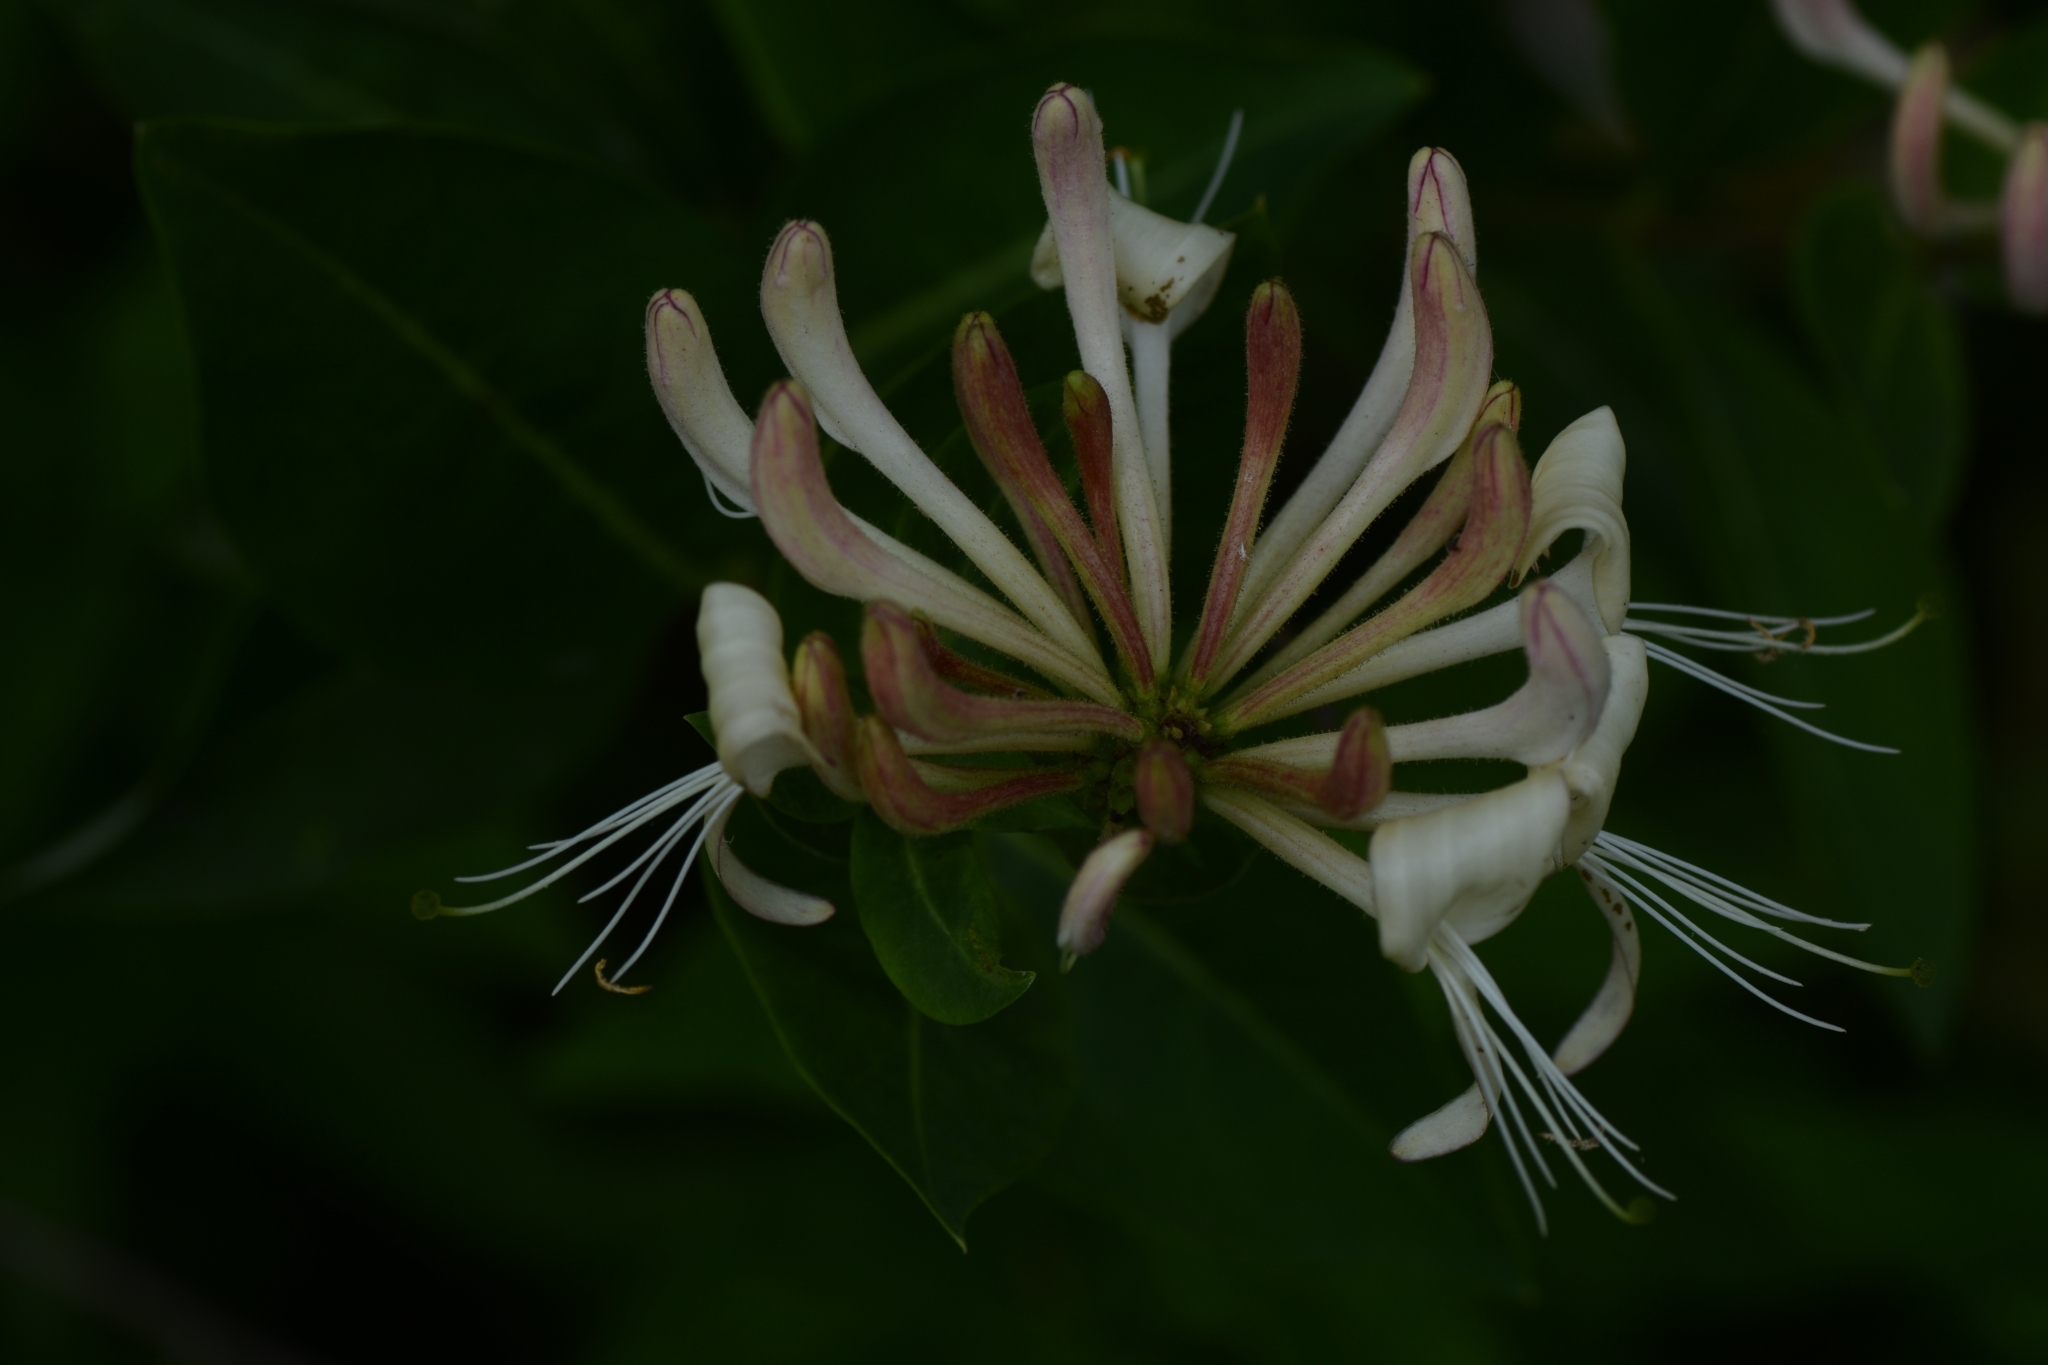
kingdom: Plantae
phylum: Tracheophyta
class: Magnoliopsida
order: Dipsacales
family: Caprifoliaceae
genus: Lonicera
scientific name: Lonicera periclymenum
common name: European honeysuckle
